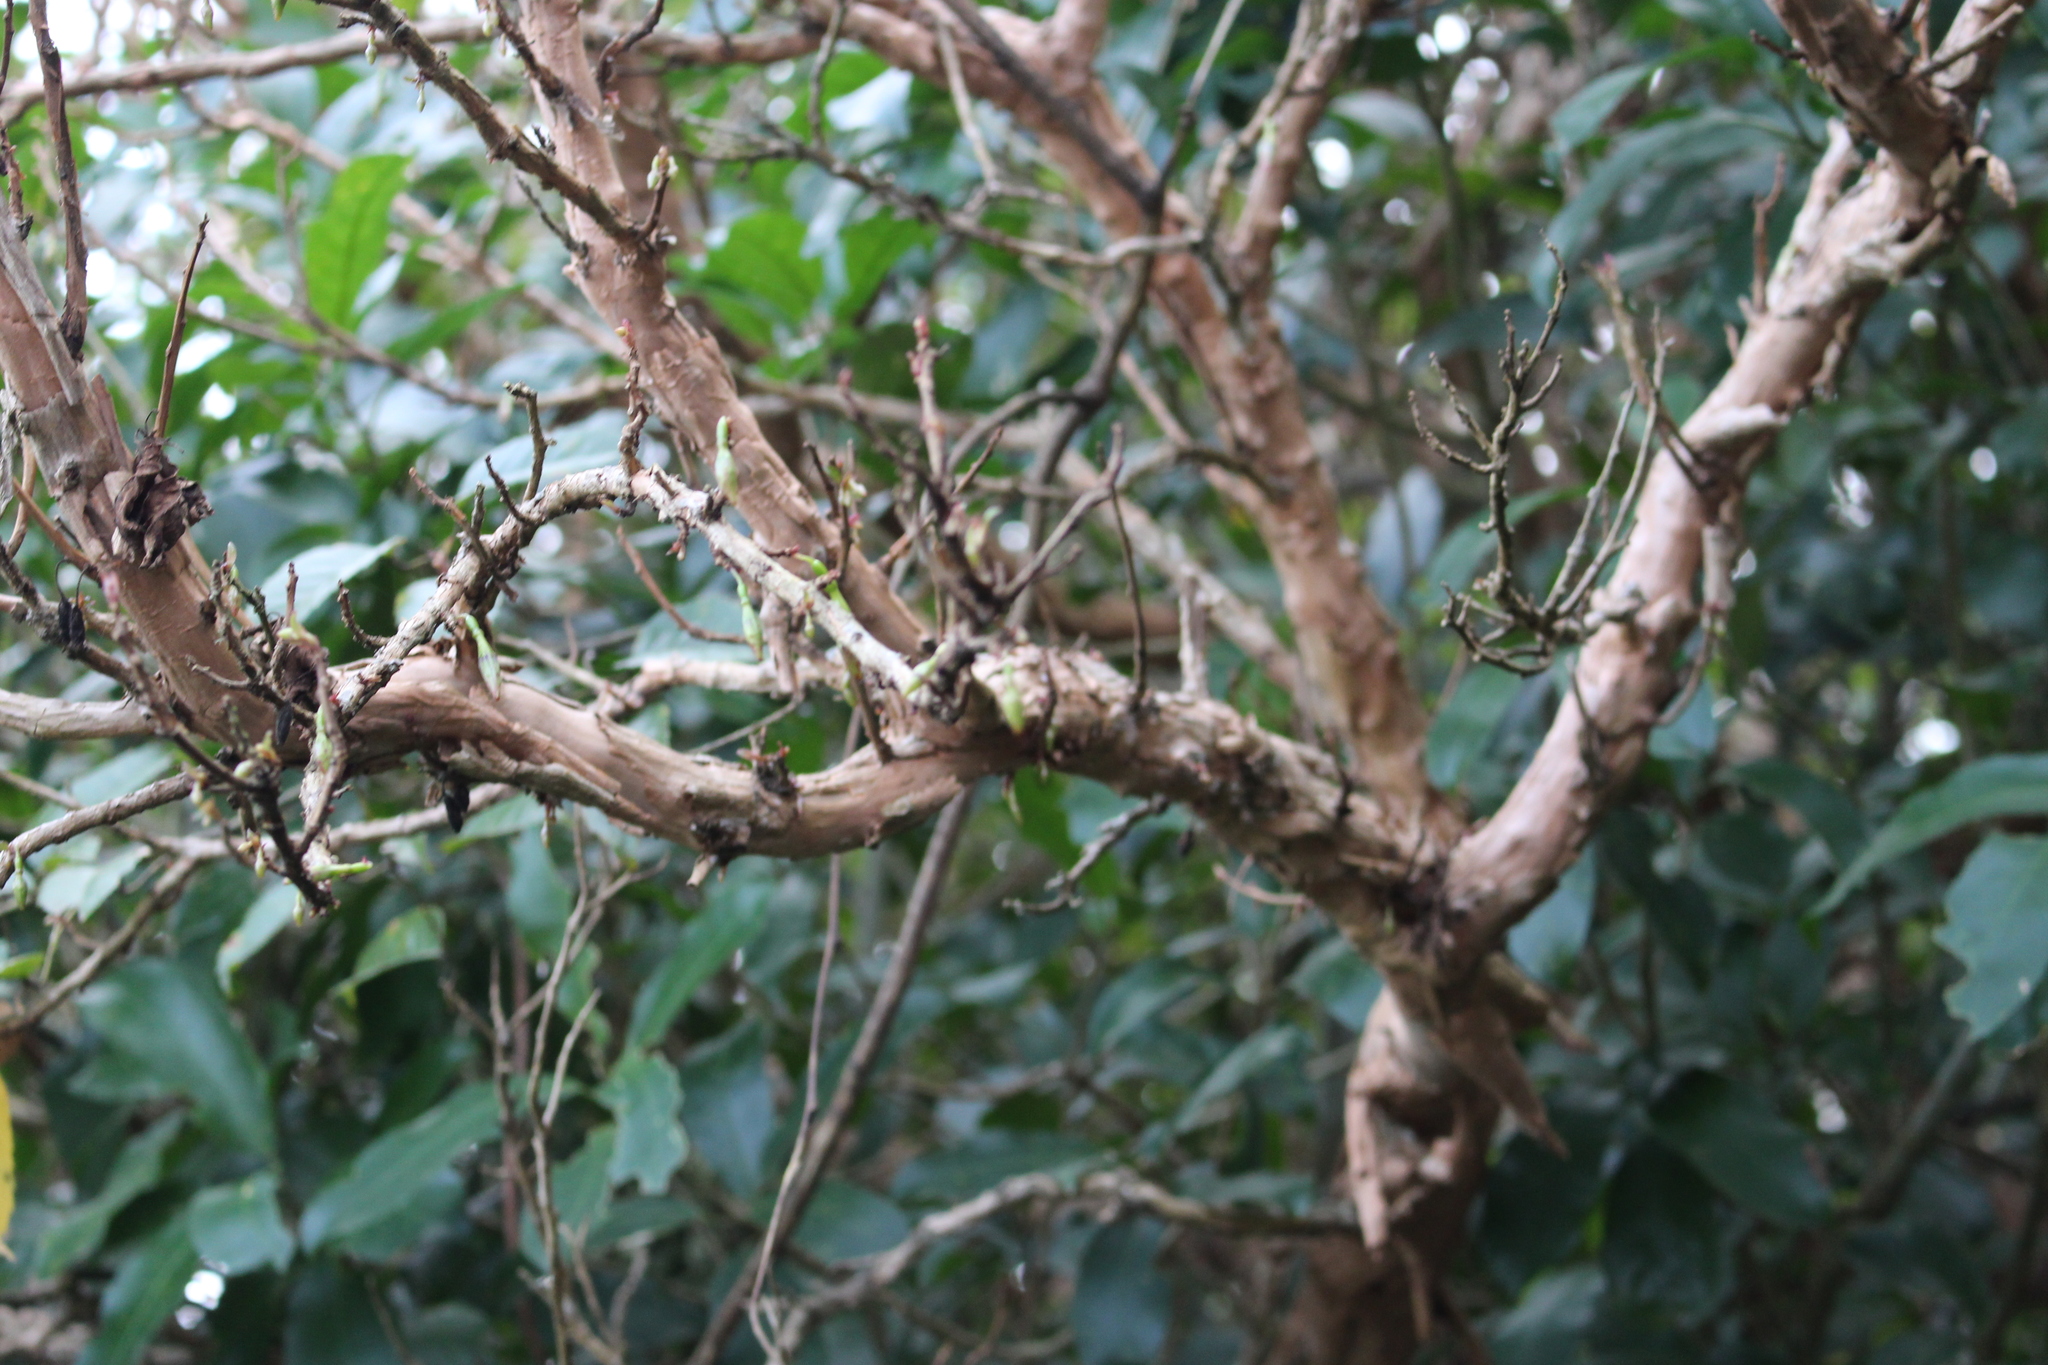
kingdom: Plantae
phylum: Tracheophyta
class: Magnoliopsida
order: Myrtales
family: Onagraceae
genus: Fuchsia
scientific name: Fuchsia excorticata
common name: Tree fuchsia
